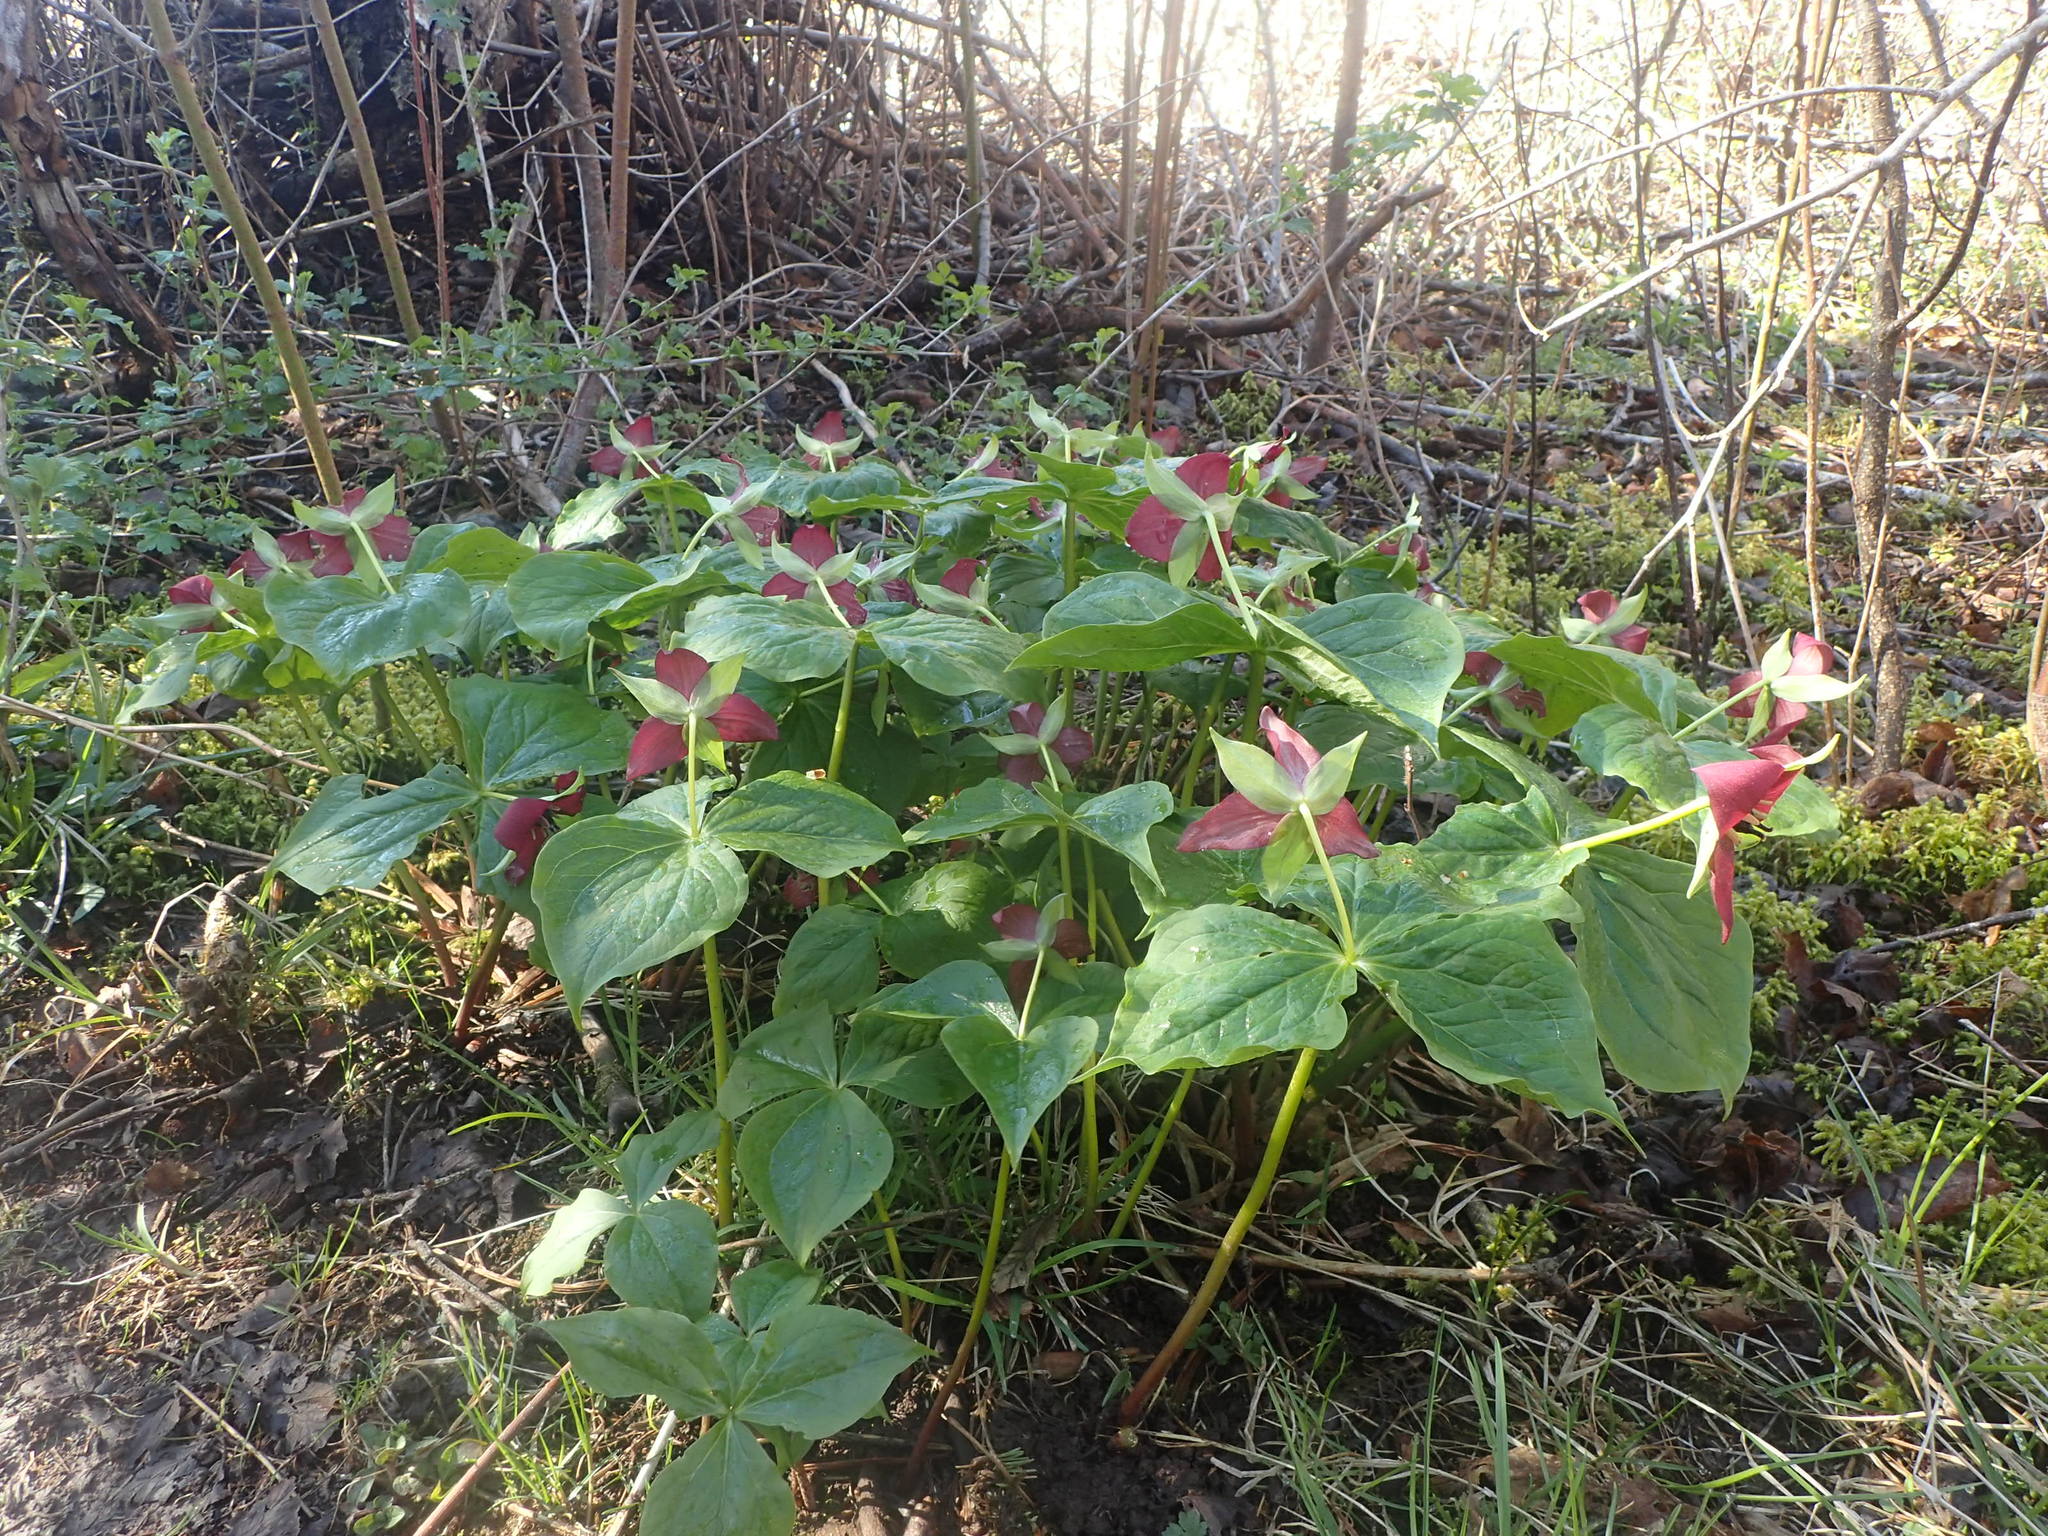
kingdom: Plantae
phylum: Tracheophyta
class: Liliopsida
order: Liliales
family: Melanthiaceae
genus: Trillium
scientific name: Trillium erectum
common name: Purple trillium
